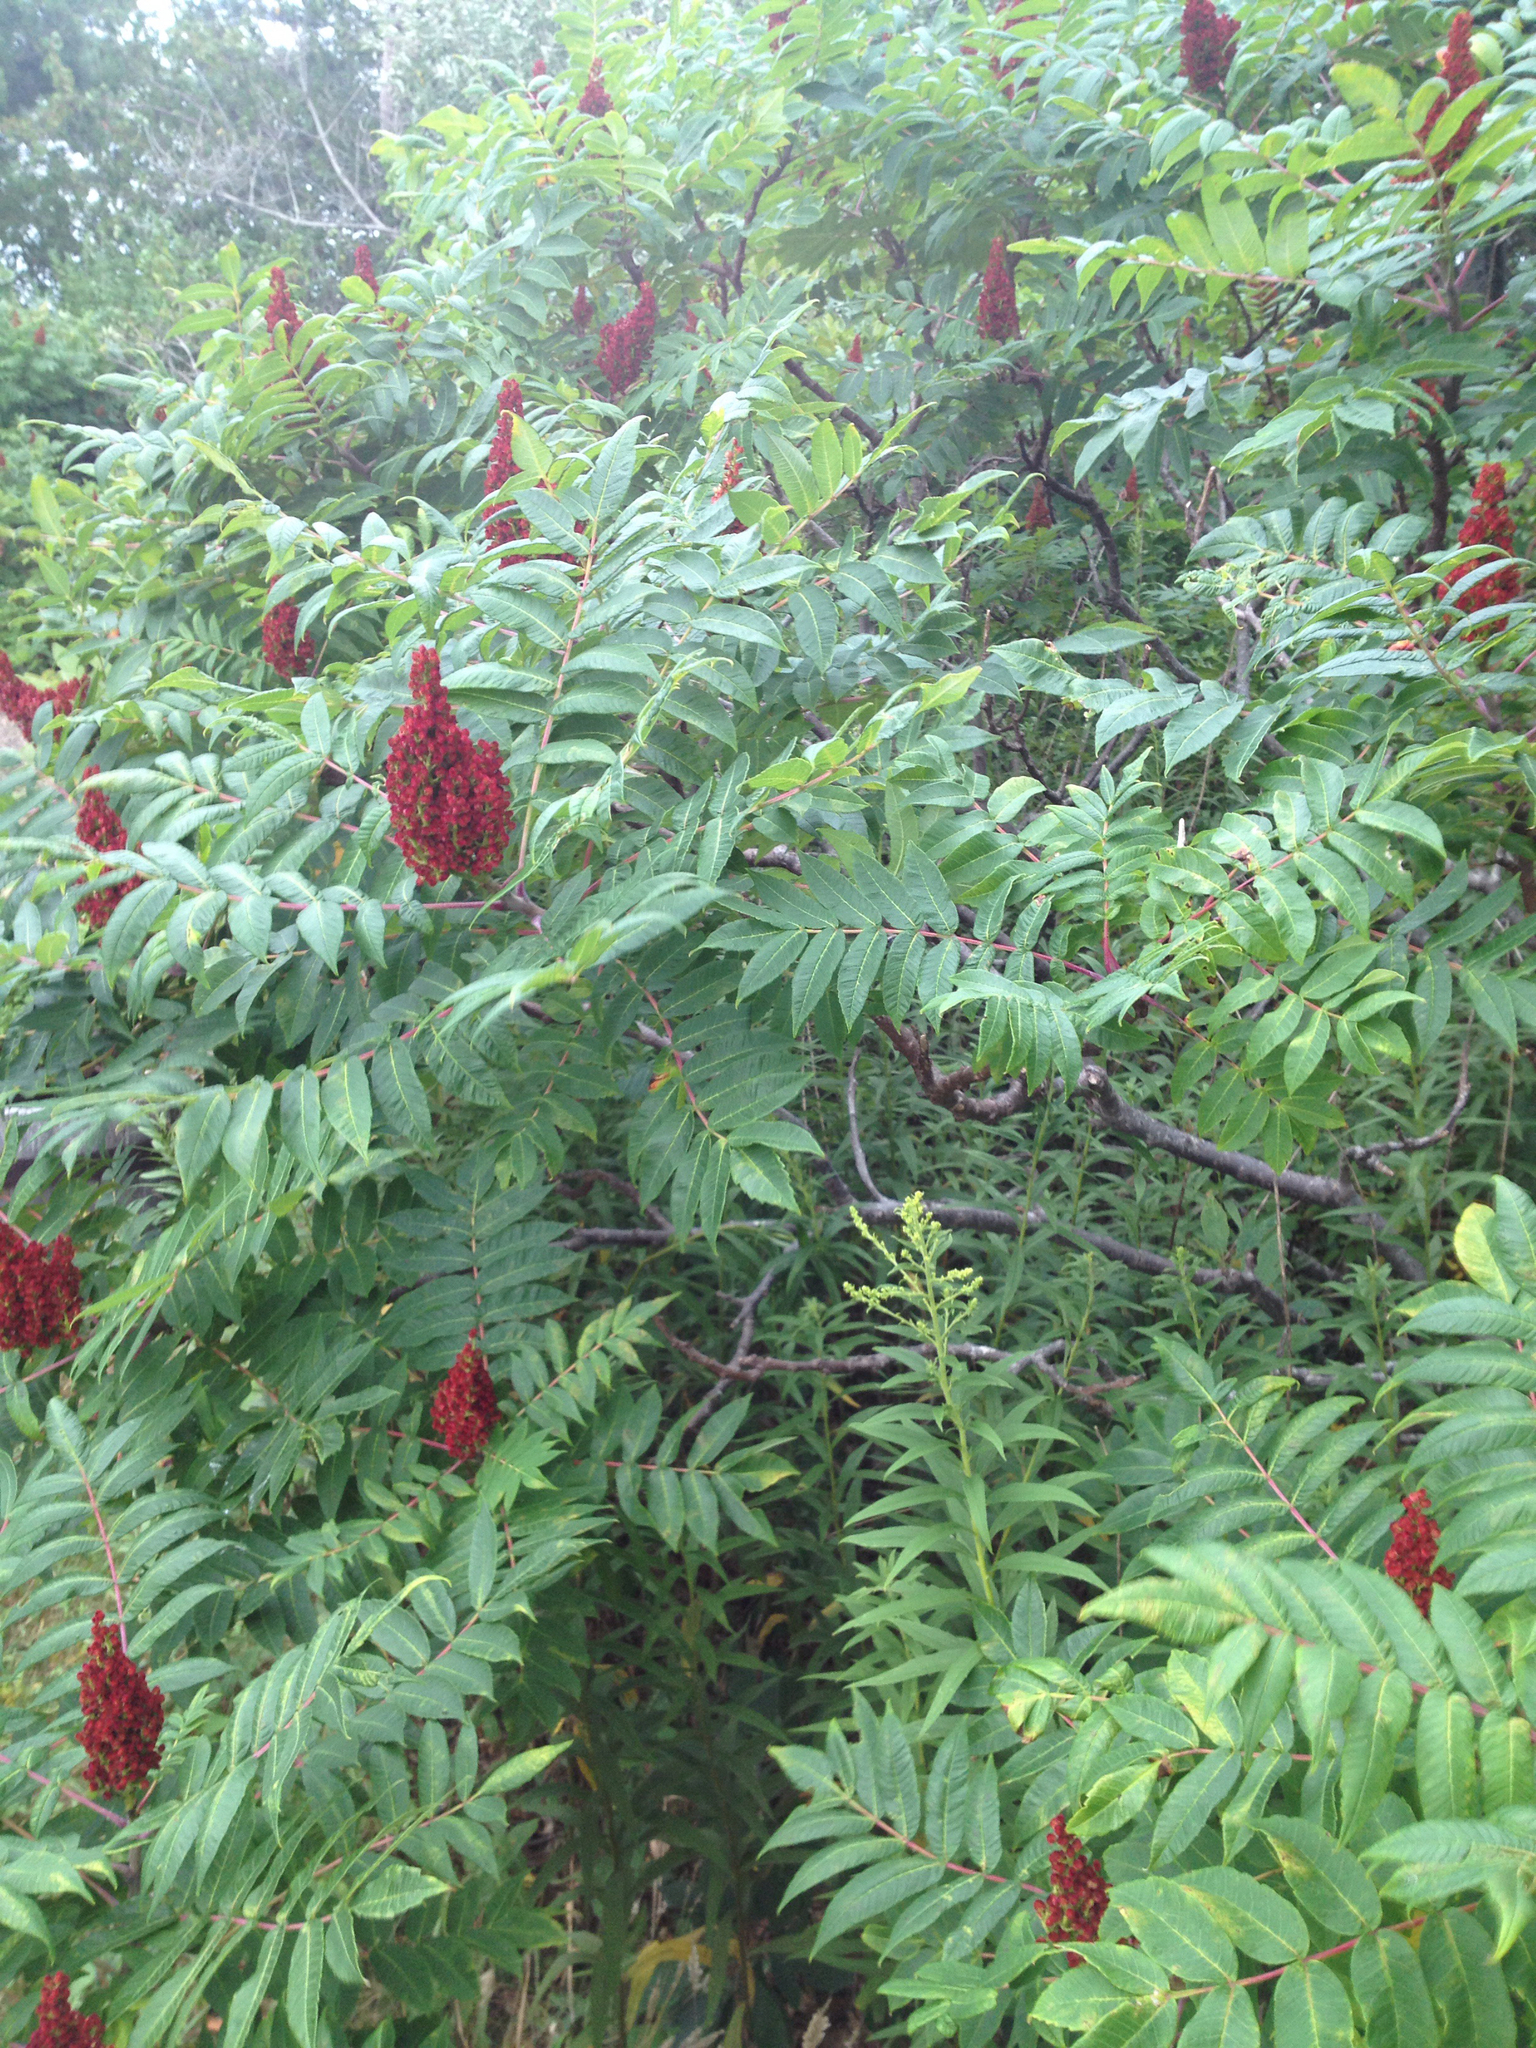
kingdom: Plantae
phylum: Tracheophyta
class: Magnoliopsida
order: Sapindales
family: Anacardiaceae
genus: Rhus
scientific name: Rhus typhina
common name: Staghorn sumac
